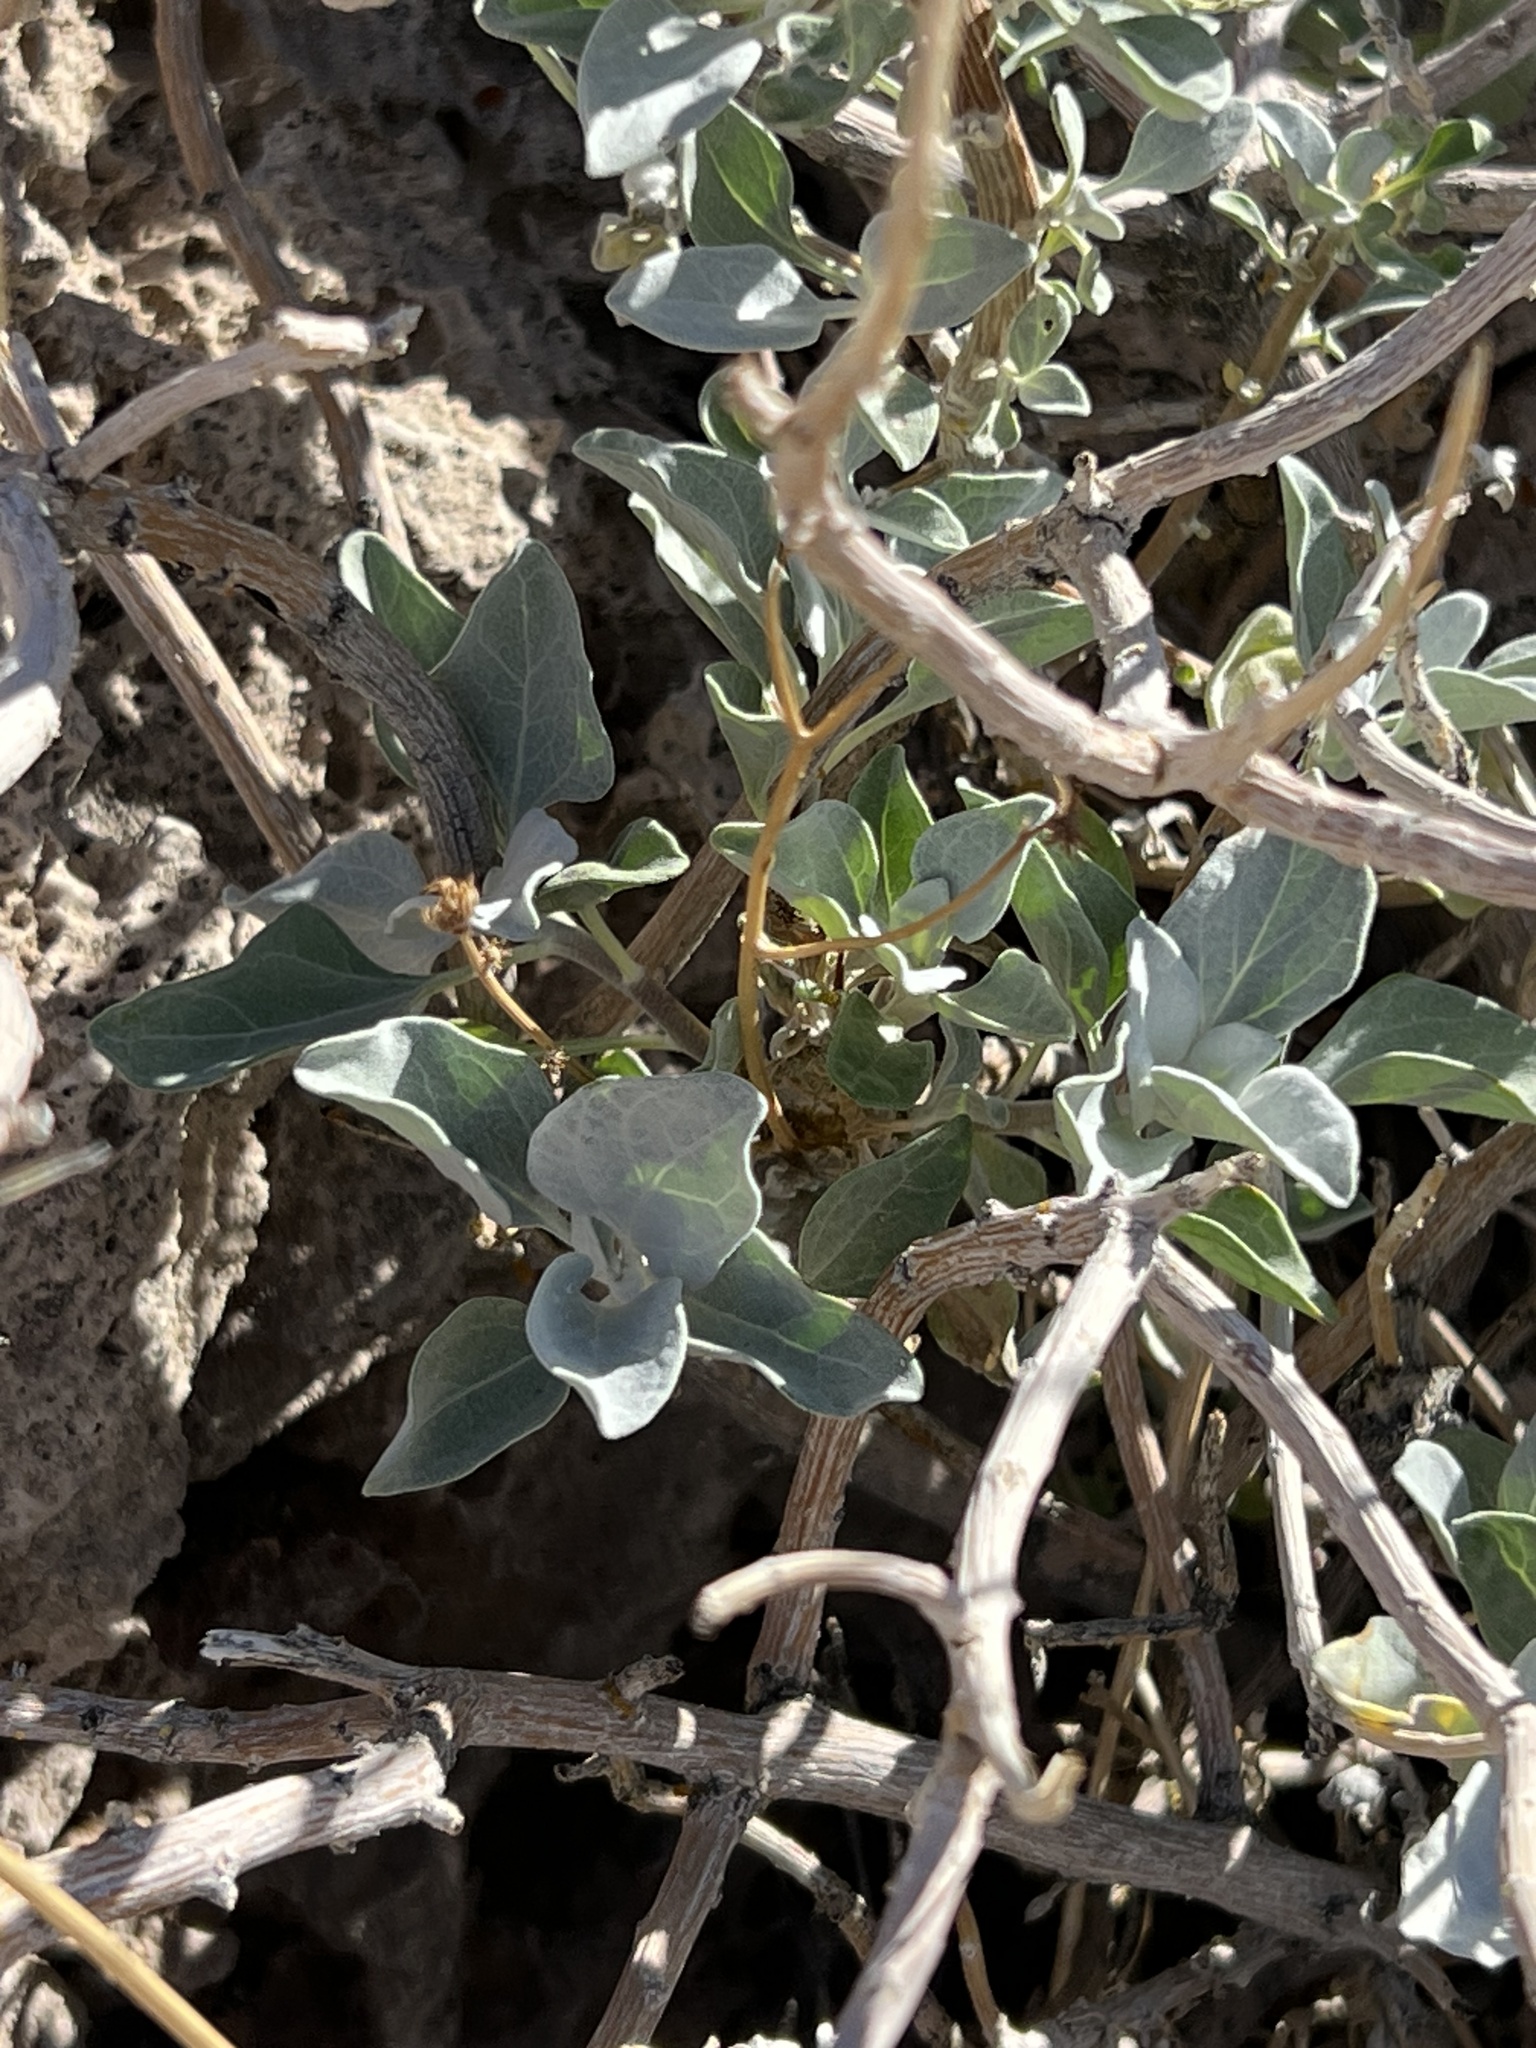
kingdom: Plantae
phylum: Tracheophyta
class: Magnoliopsida
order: Asterales
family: Asteraceae
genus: Encelia
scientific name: Encelia farinosa
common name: Brittlebush
